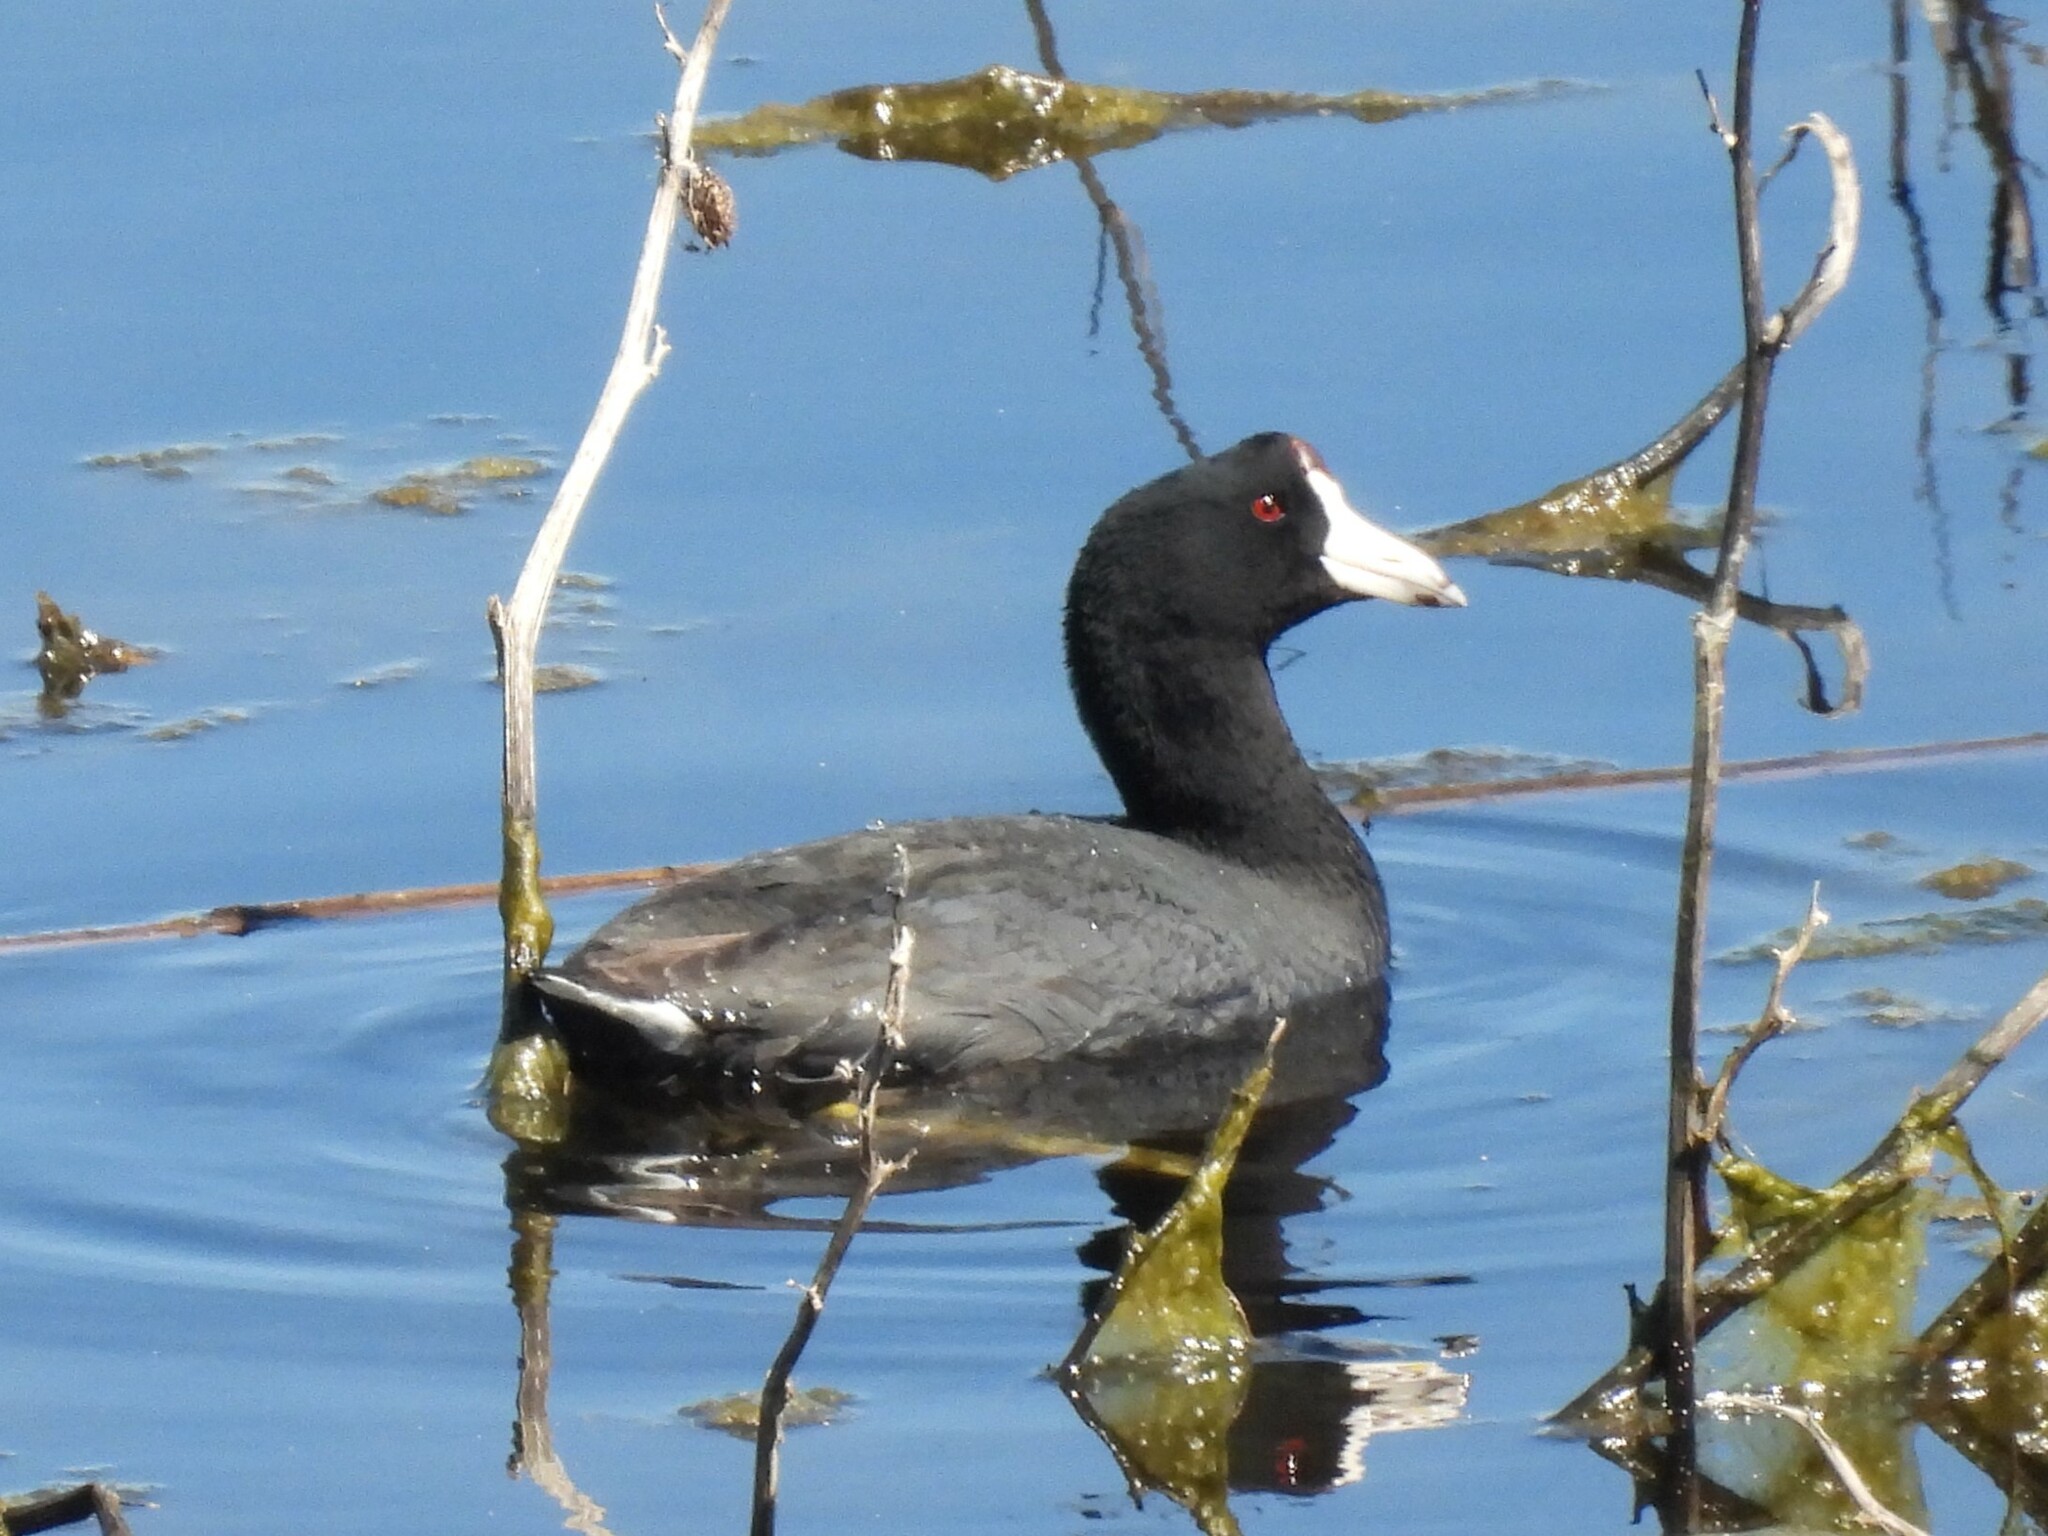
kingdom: Animalia
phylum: Chordata
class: Aves
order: Gruiformes
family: Rallidae
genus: Fulica
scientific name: Fulica americana
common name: American coot
